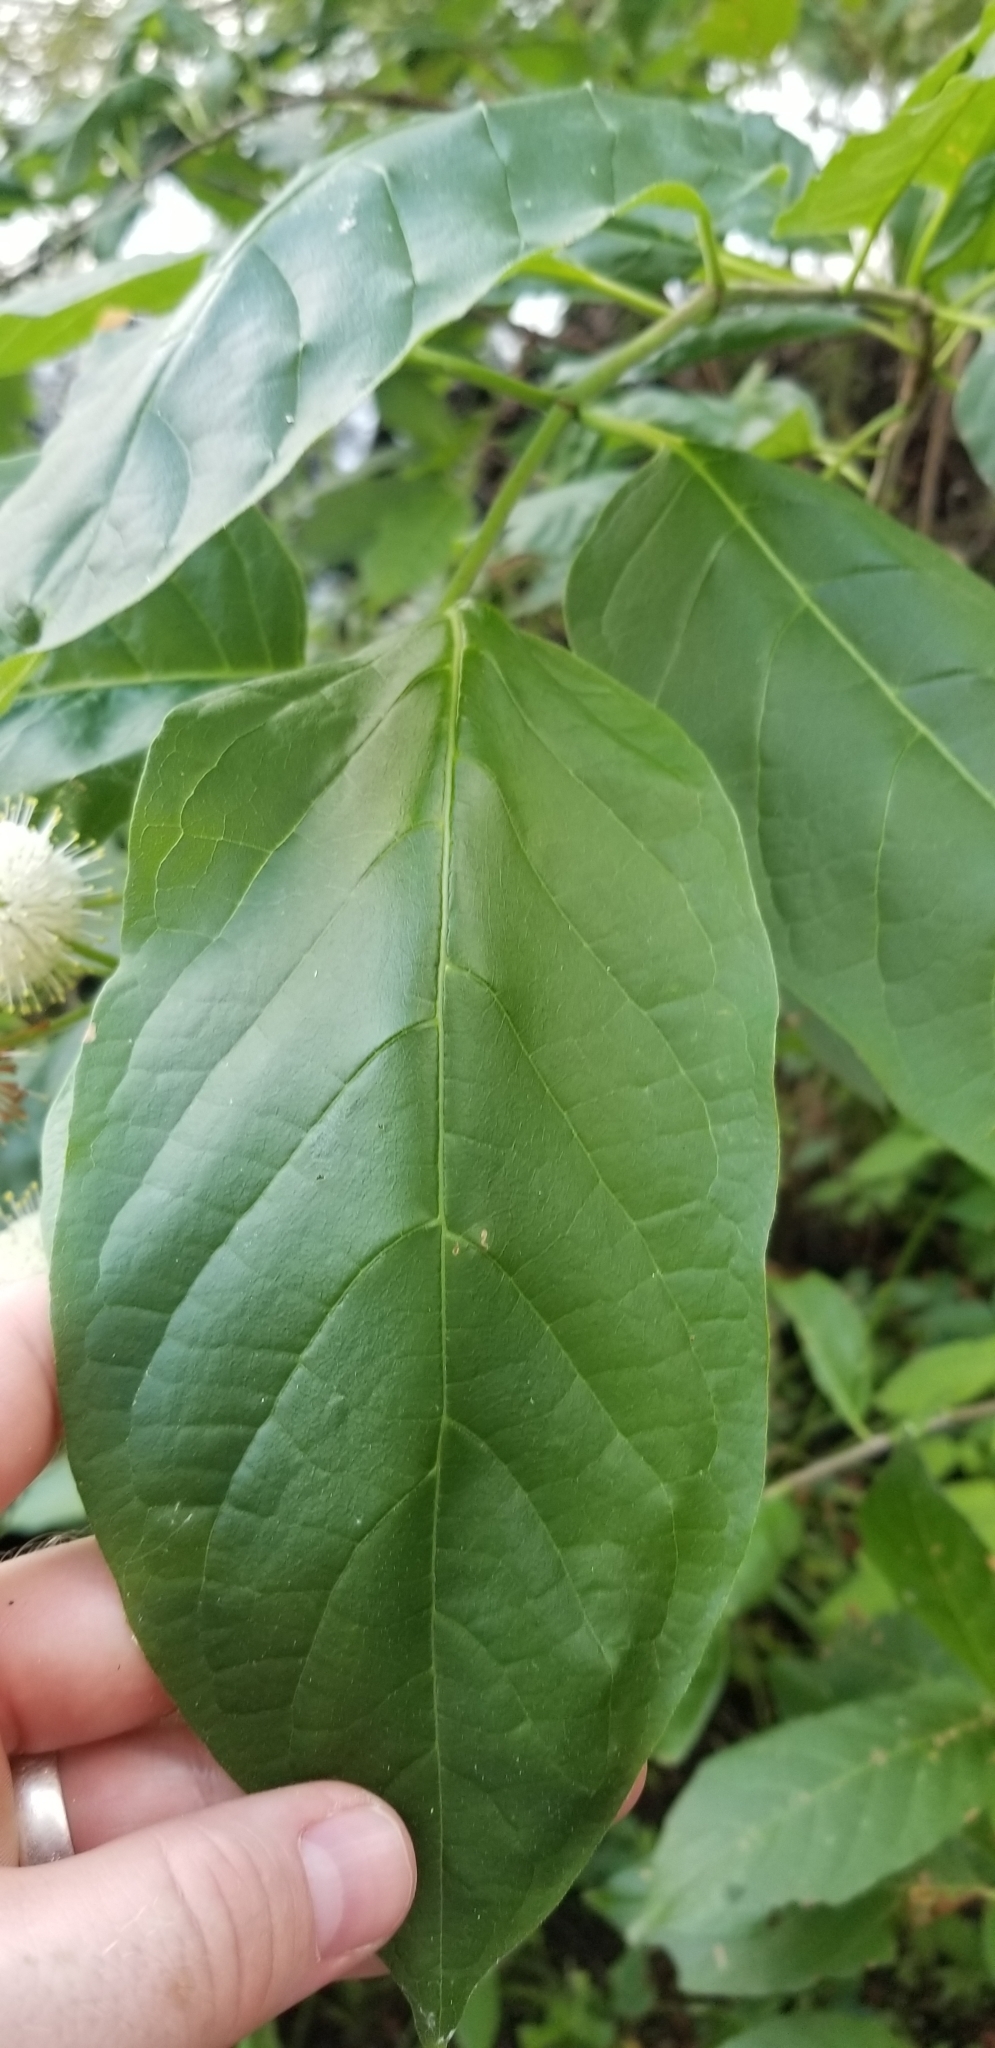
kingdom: Plantae
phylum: Tracheophyta
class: Magnoliopsida
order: Gentianales
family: Rubiaceae
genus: Cephalanthus
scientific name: Cephalanthus occidentalis
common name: Button-willow
